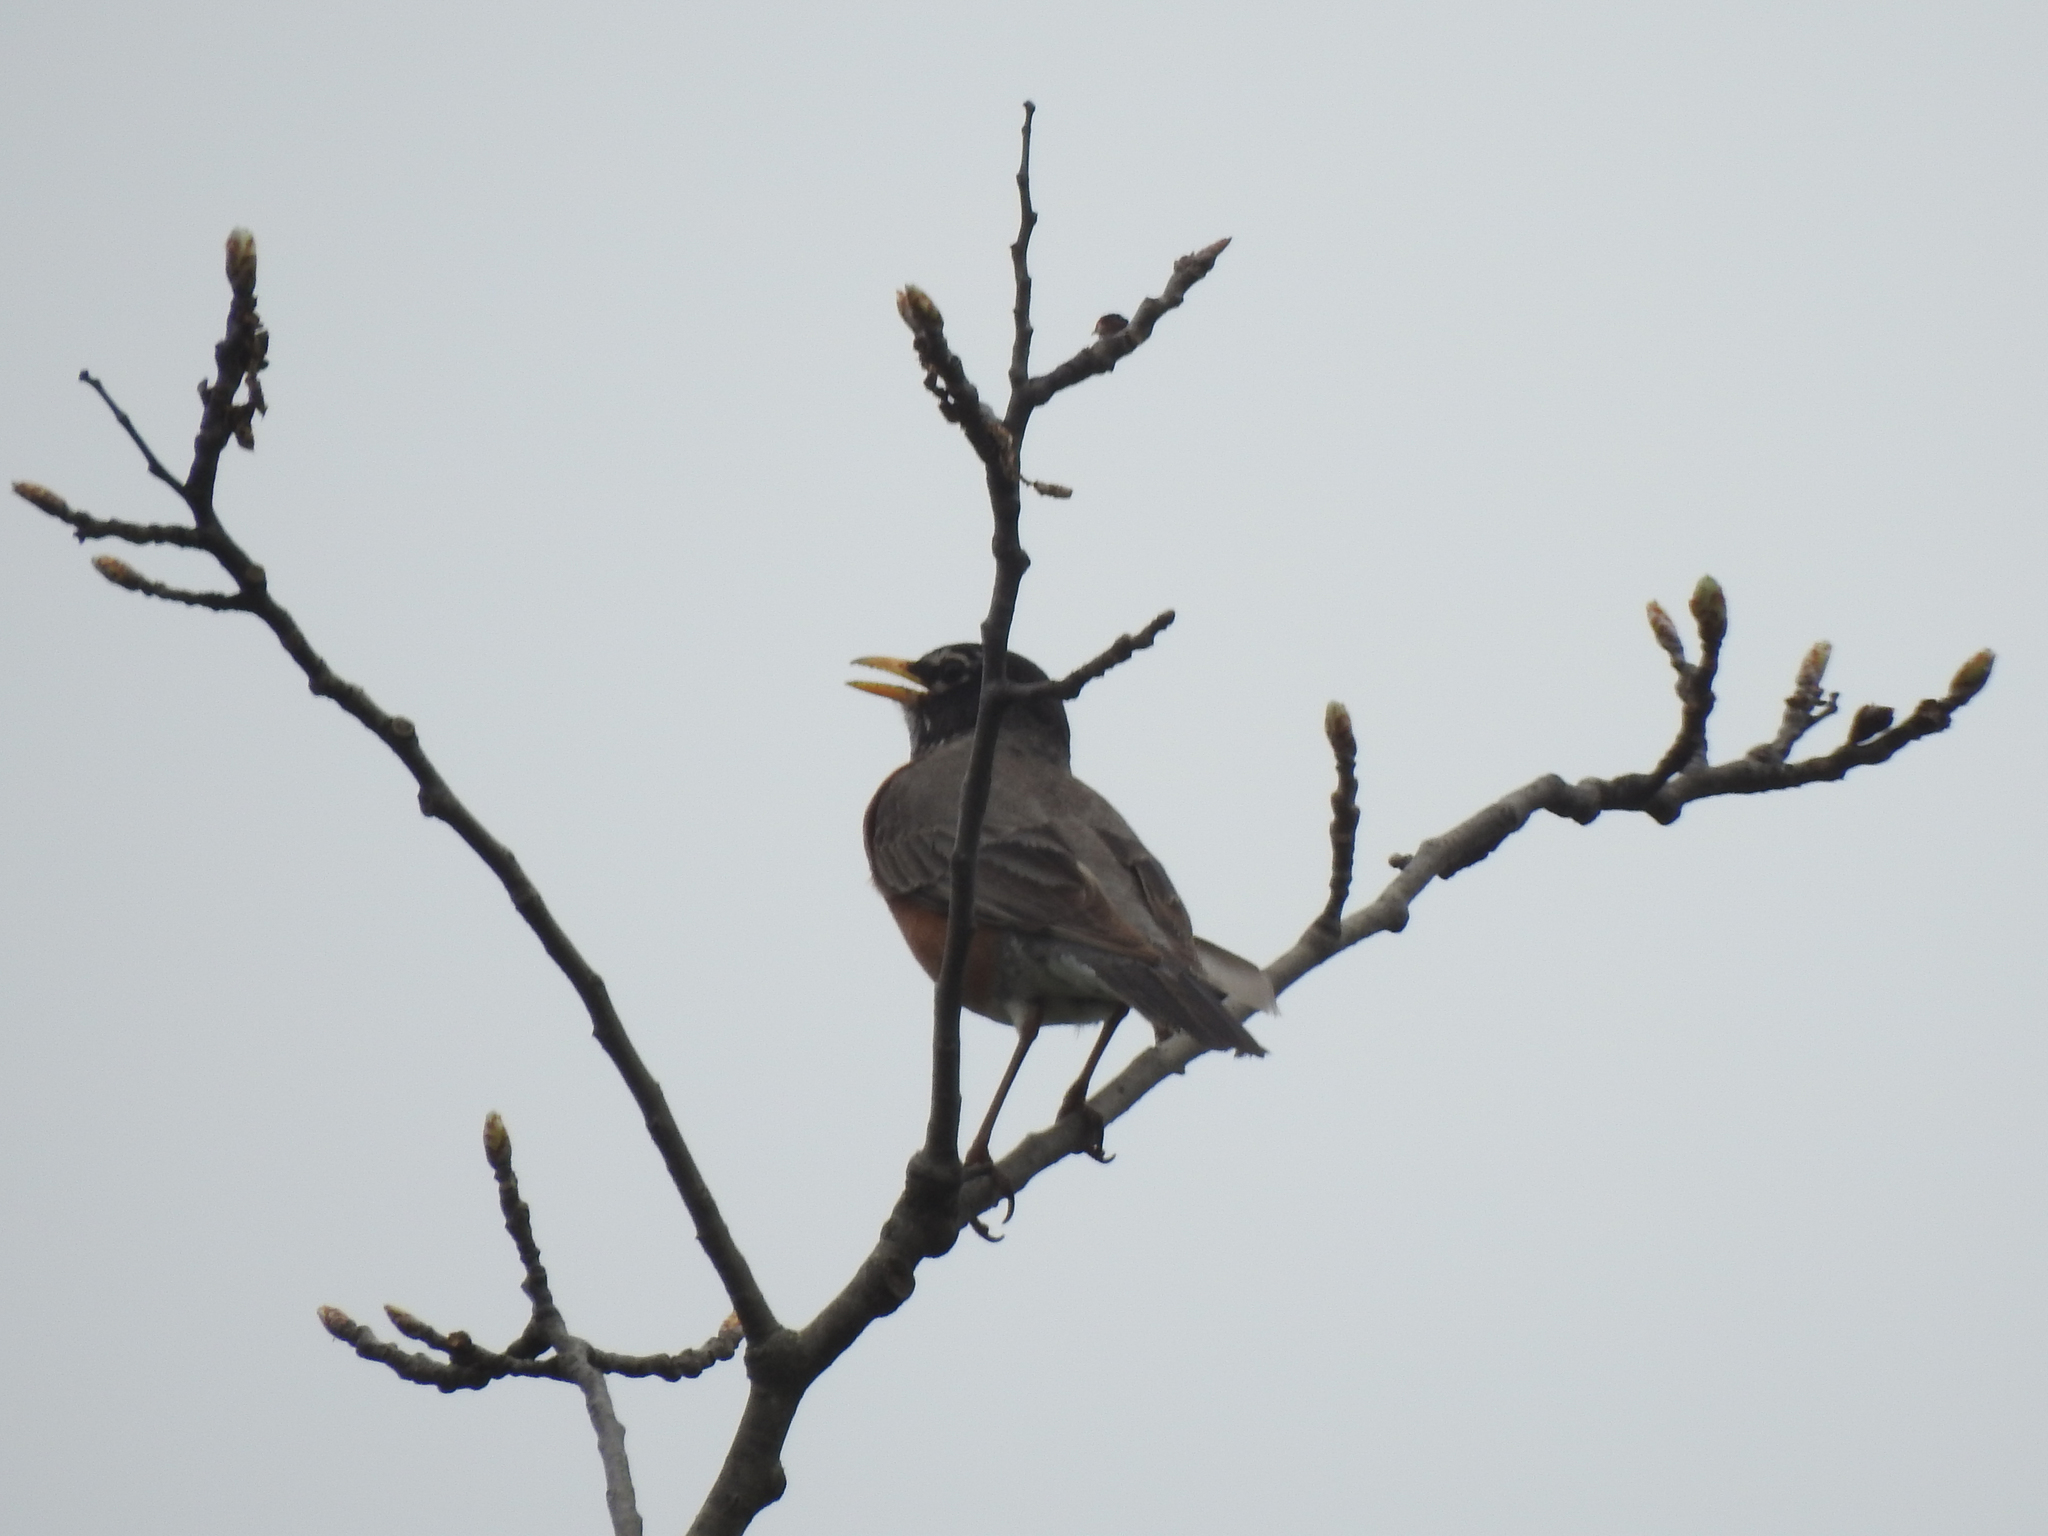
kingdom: Animalia
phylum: Chordata
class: Aves
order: Passeriformes
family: Turdidae
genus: Turdus
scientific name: Turdus migratorius
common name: American robin
